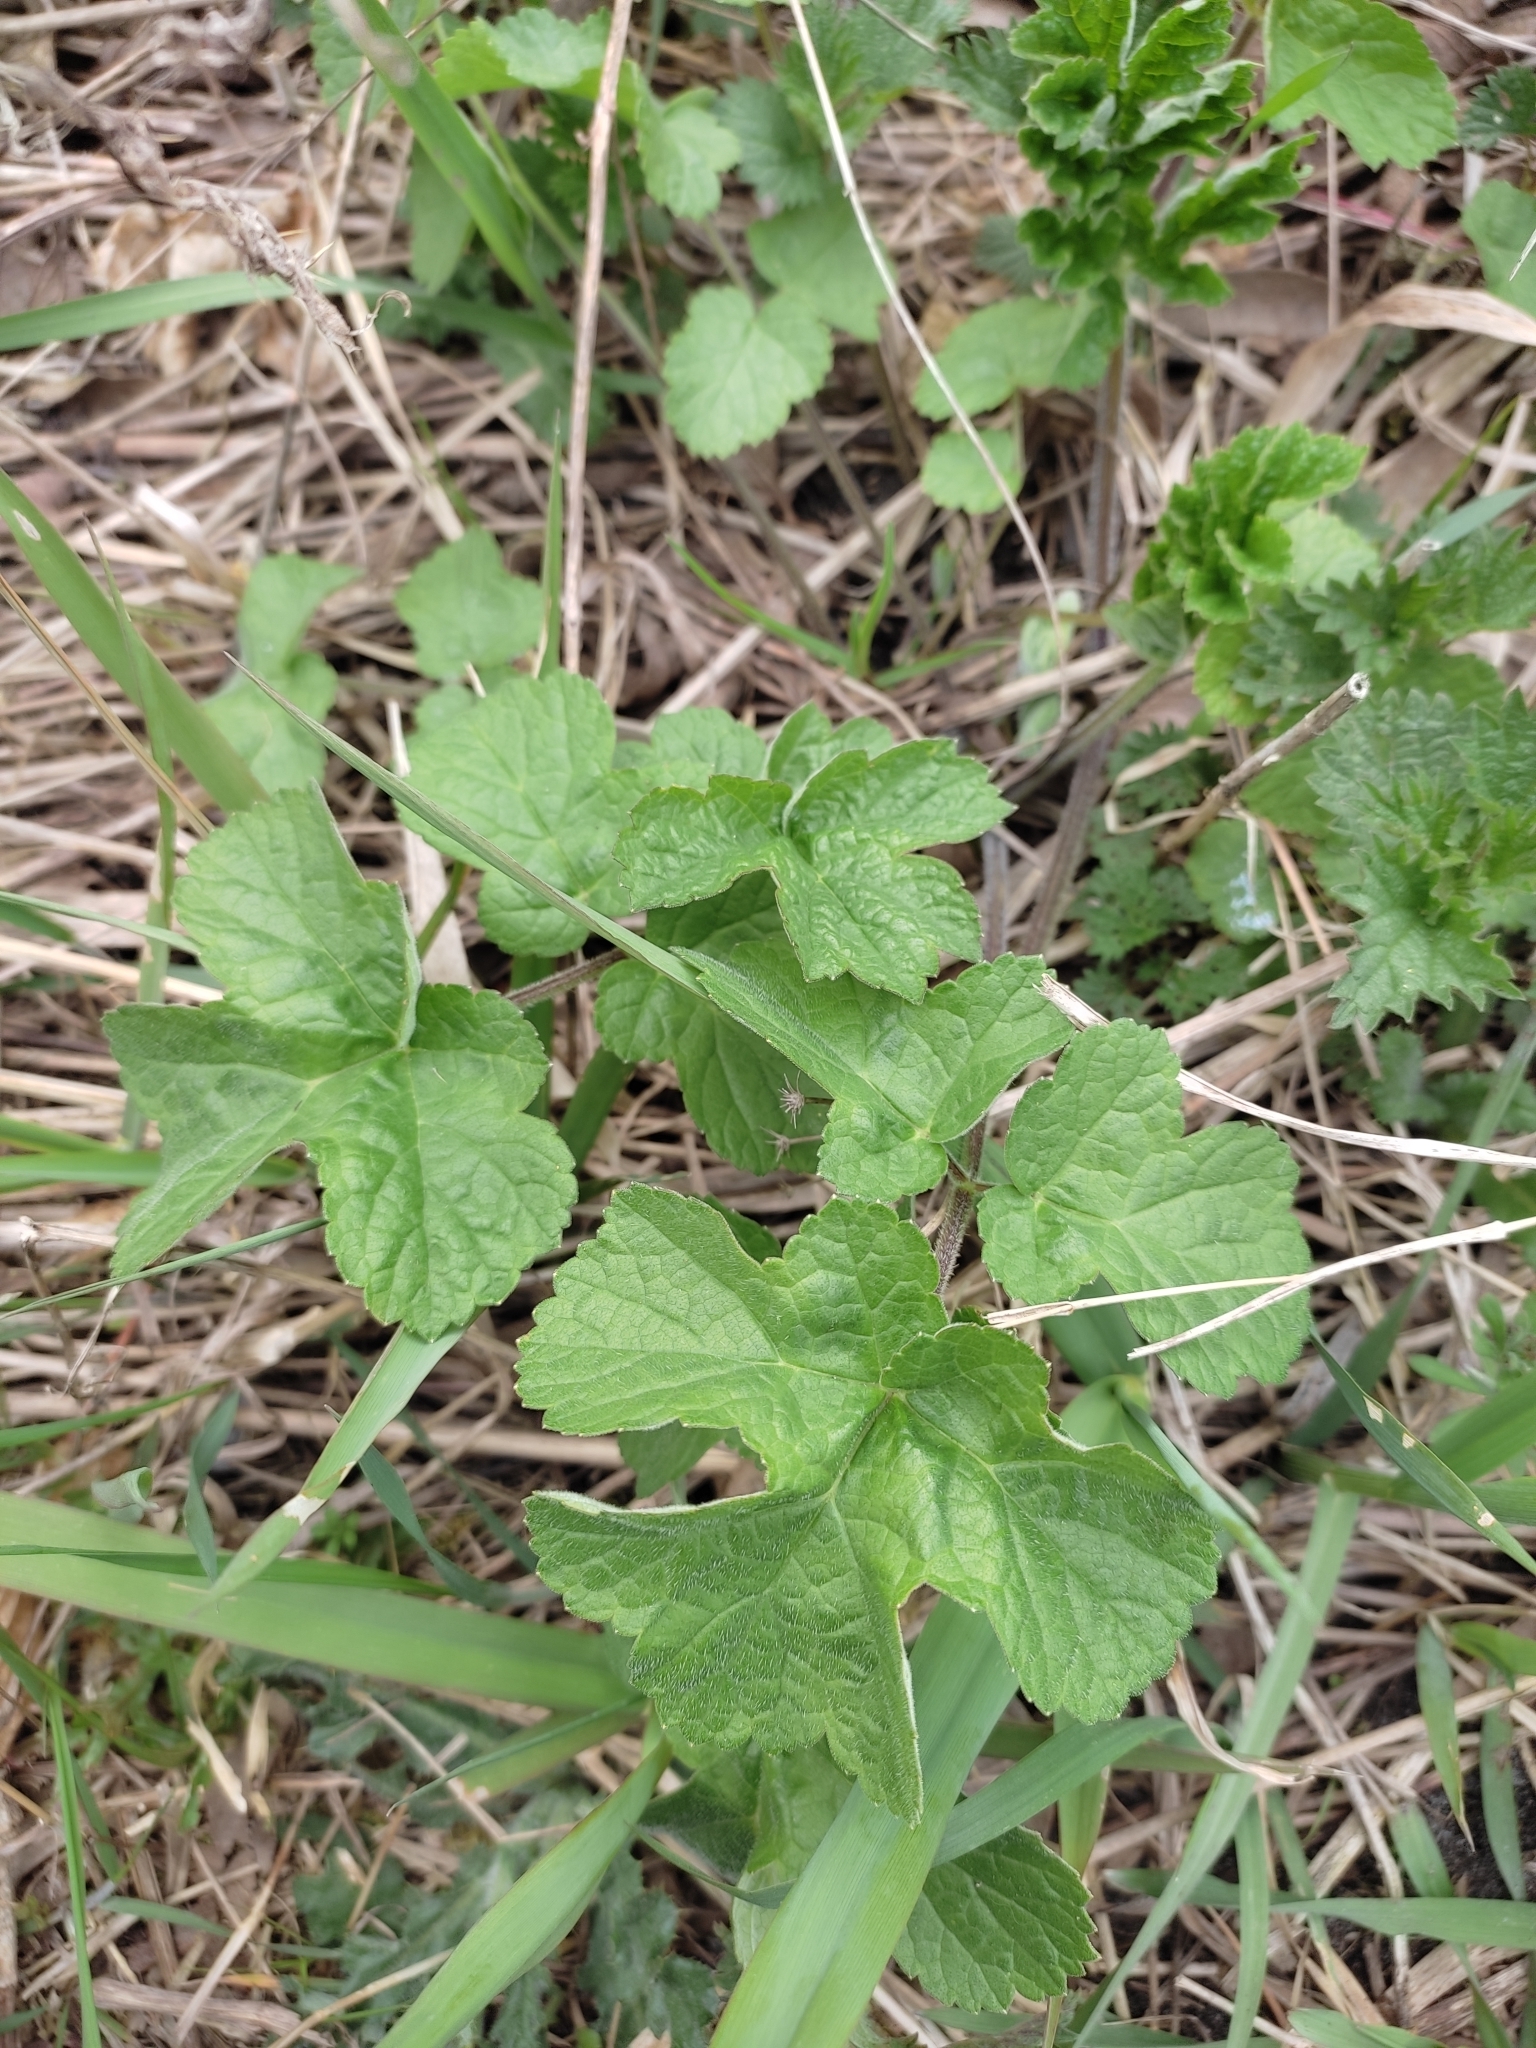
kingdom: Plantae
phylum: Tracheophyta
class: Magnoliopsida
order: Apiales
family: Apiaceae
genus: Heracleum
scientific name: Heracleum sphondylium
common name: Hogweed
